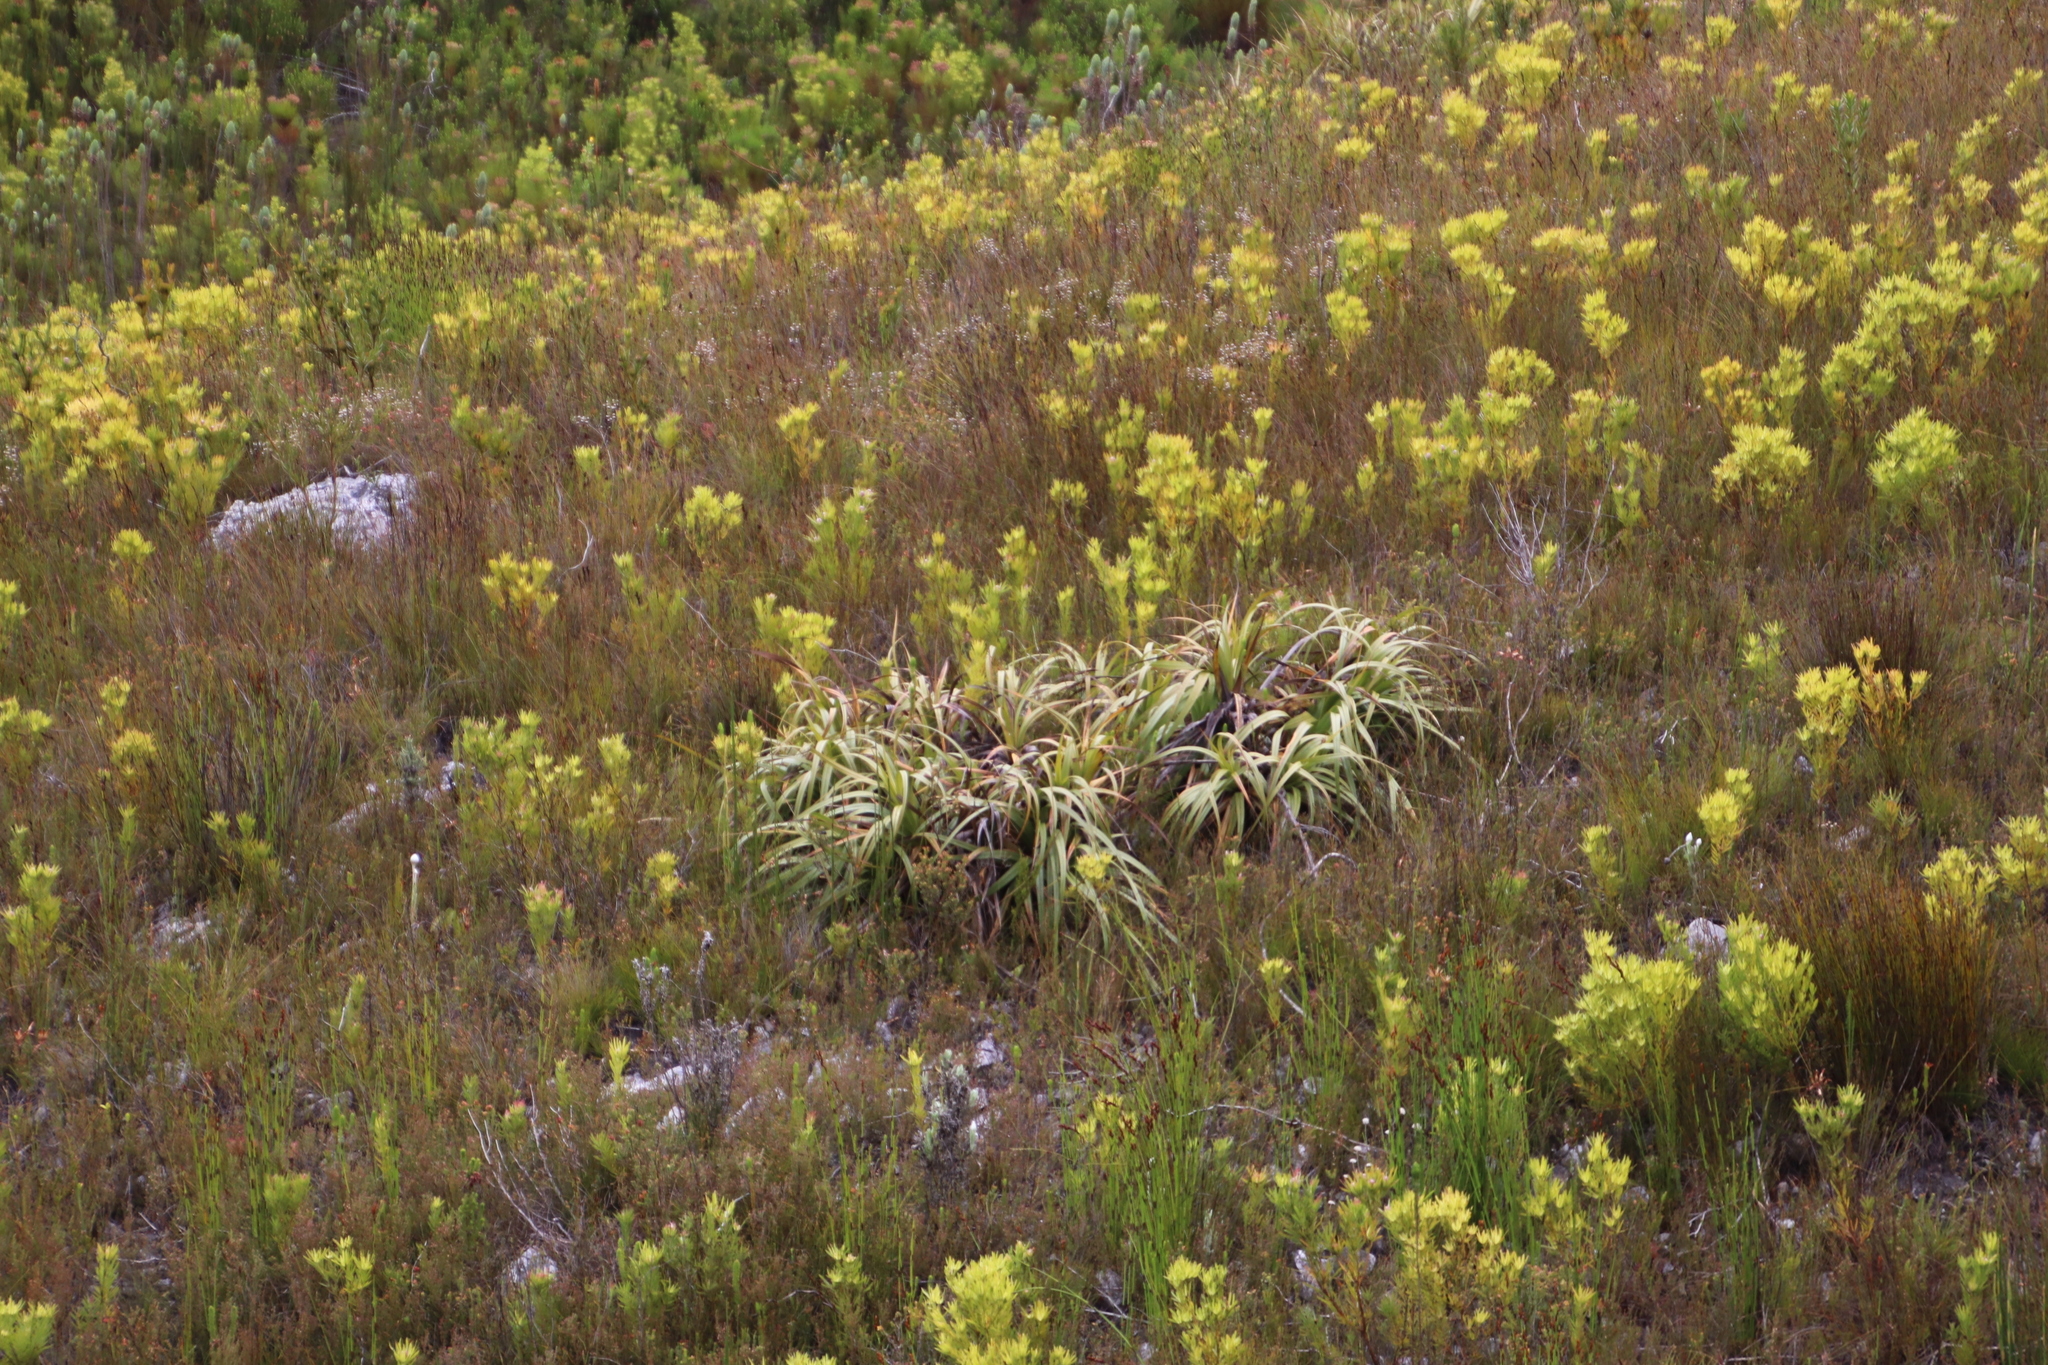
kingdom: Plantae
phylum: Tracheophyta
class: Liliopsida
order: Poales
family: Cyperaceae
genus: Tetraria
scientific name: Tetraria thermalis
